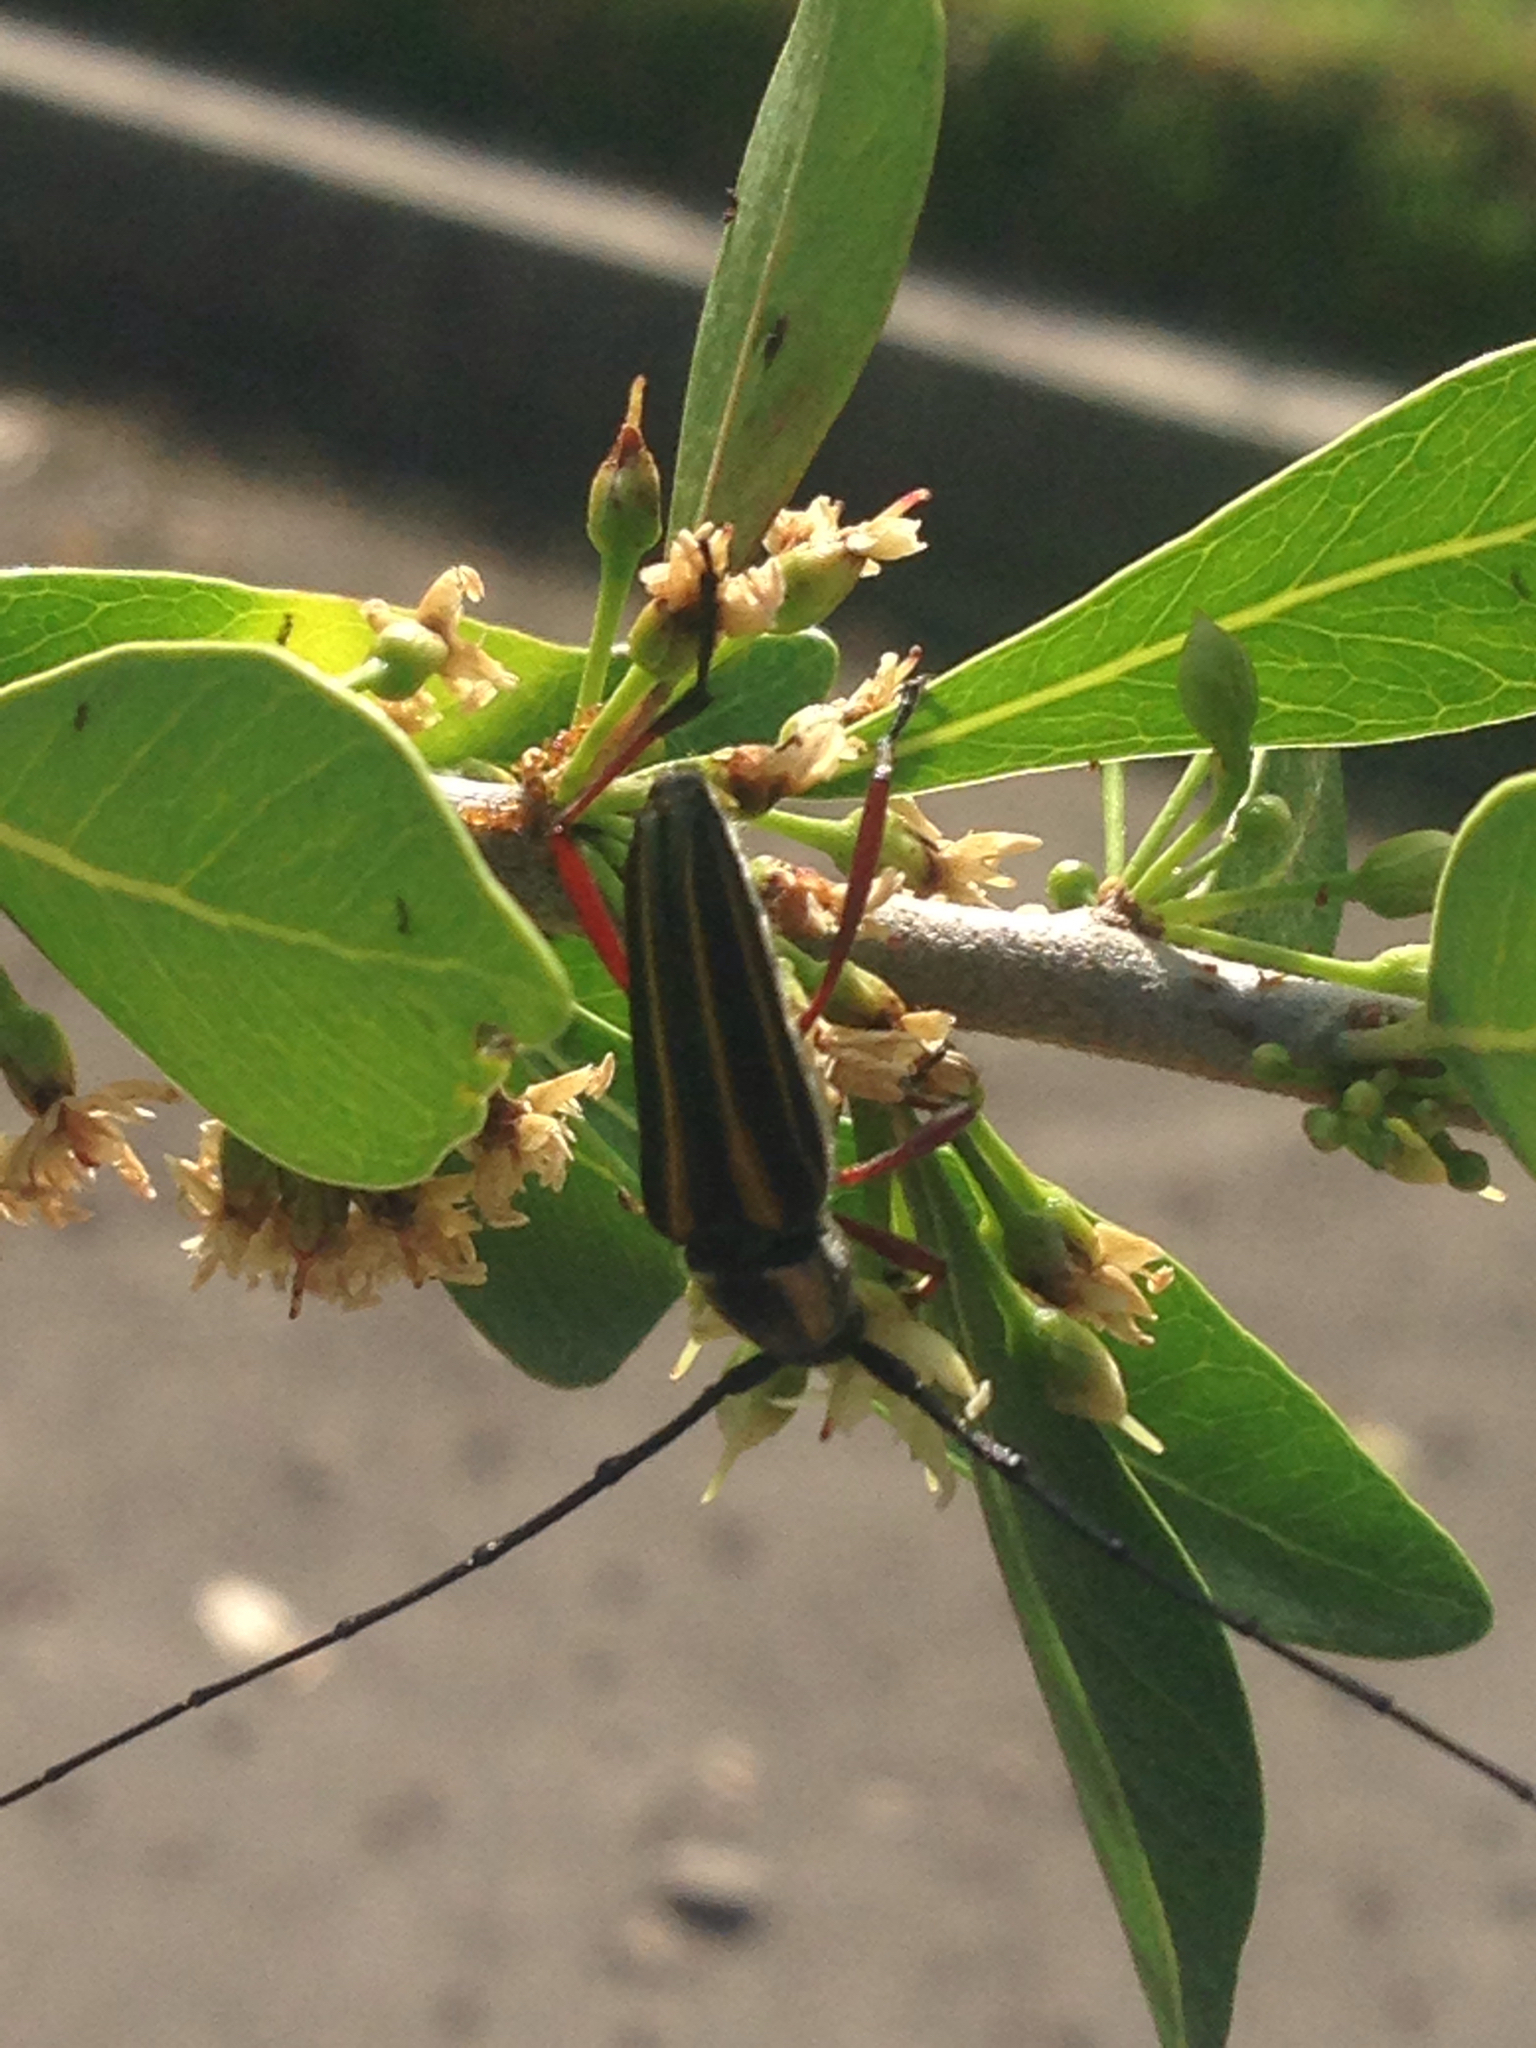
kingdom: Animalia
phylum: Arthropoda
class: Insecta
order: Coleoptera
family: Cerambycidae
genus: Sphaenothecus
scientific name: Sphaenothecus bilineatus
